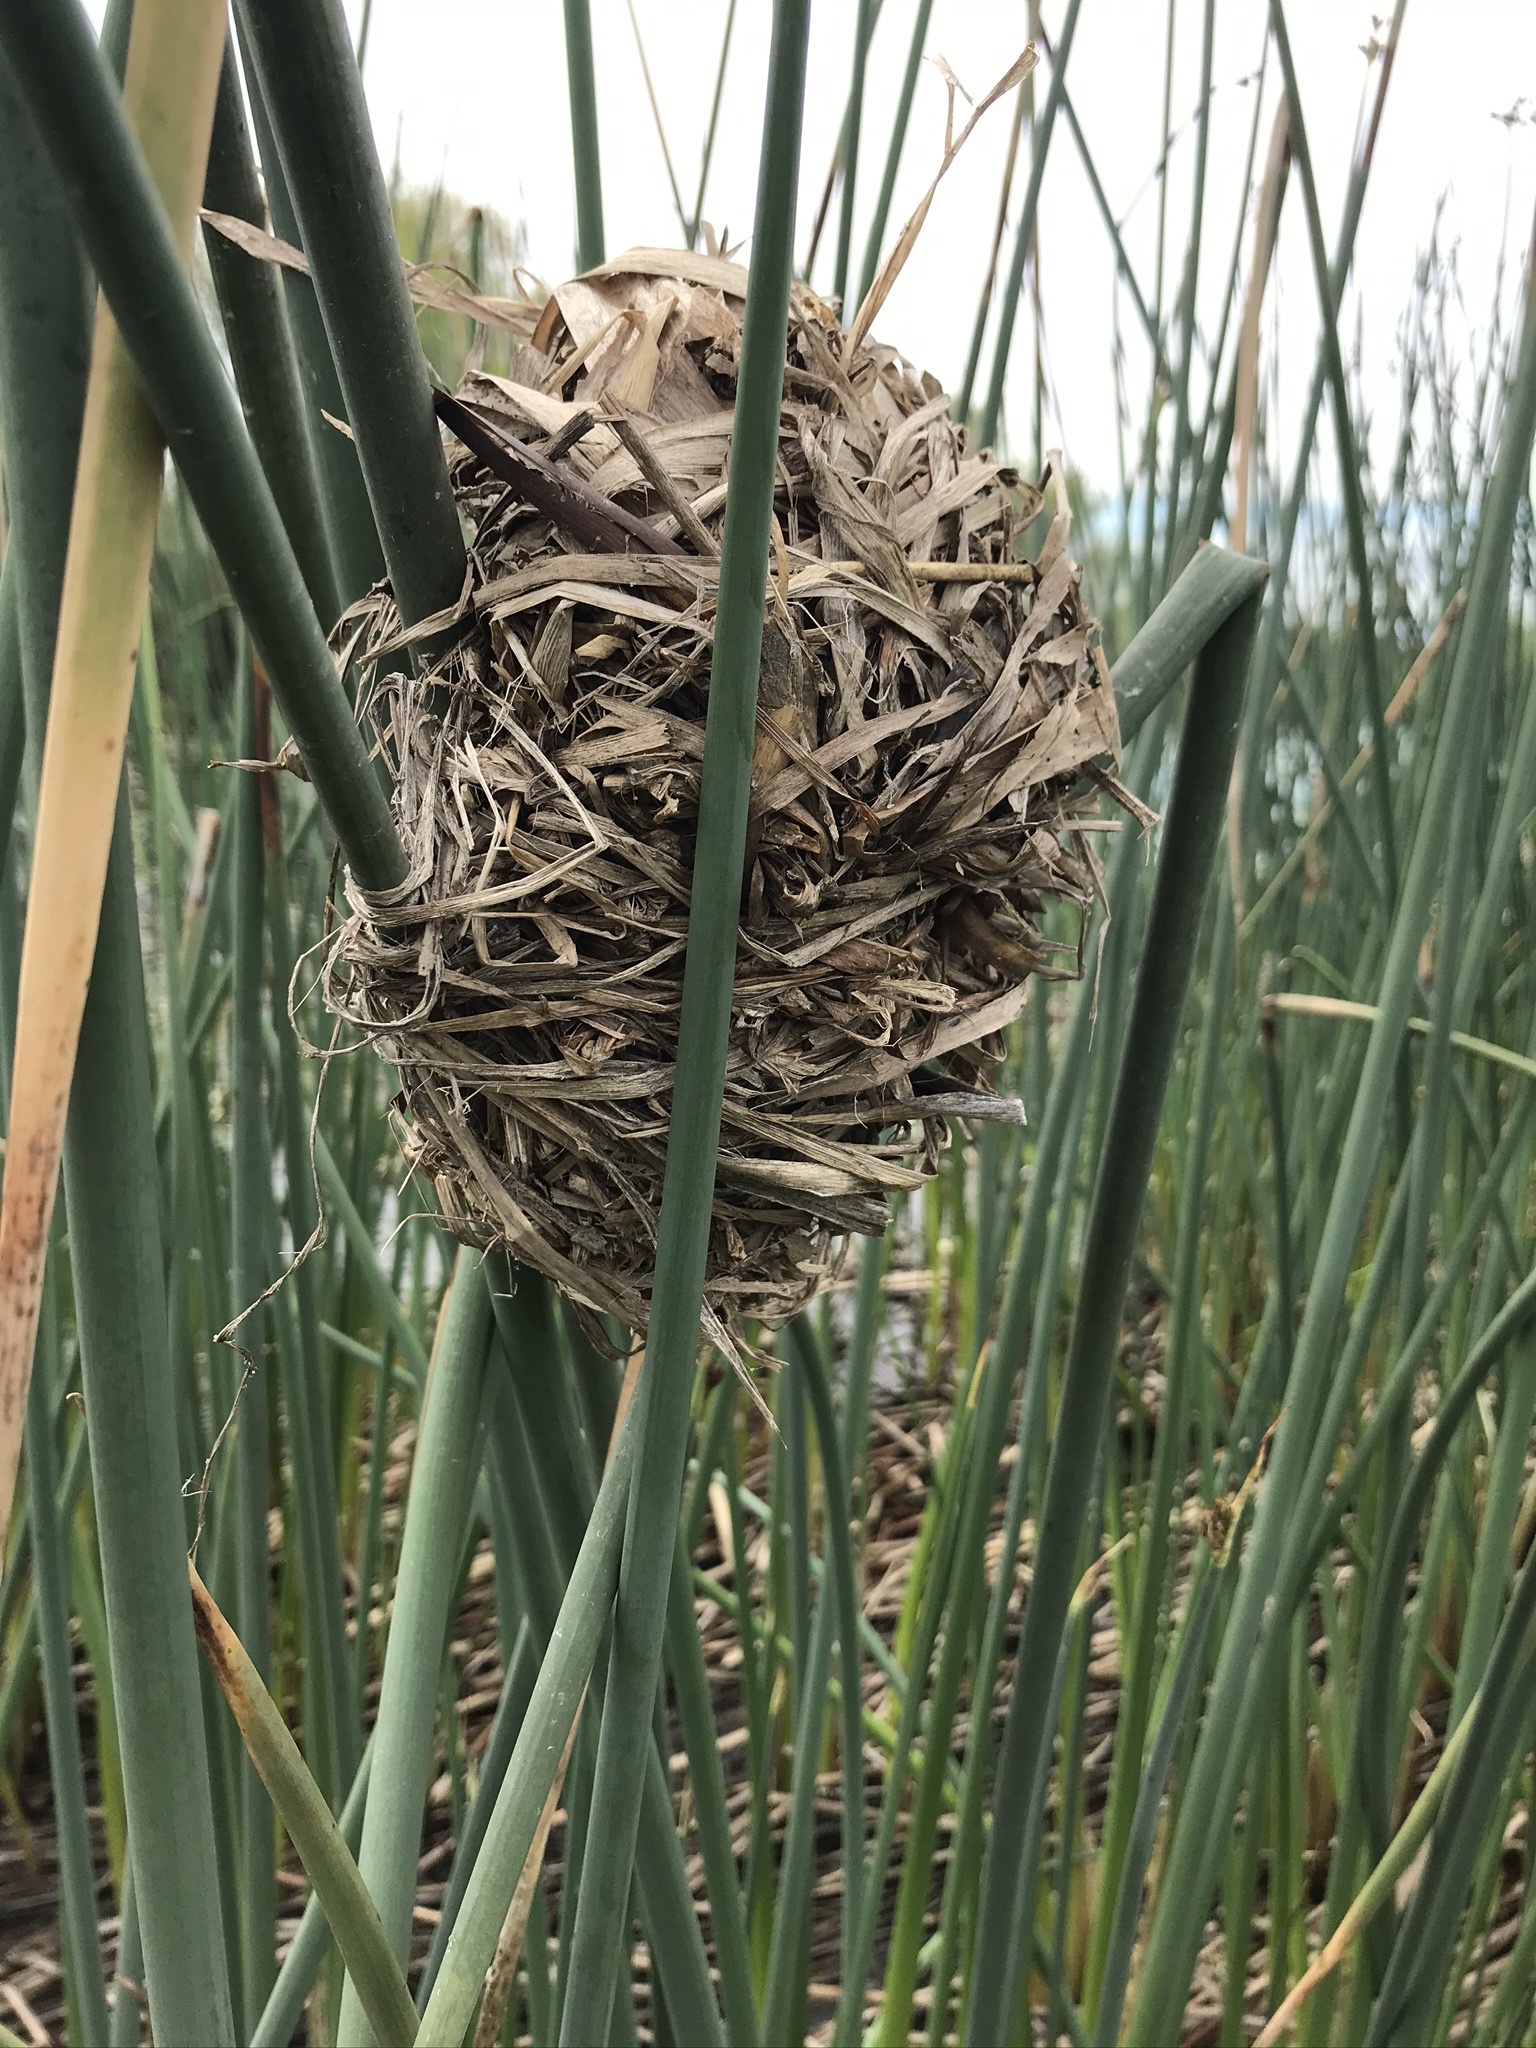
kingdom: Animalia
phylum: Chordata
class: Aves
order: Passeriformes
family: Troglodytidae
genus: Cistothorus
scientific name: Cistothorus palustris
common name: Marsh wren
